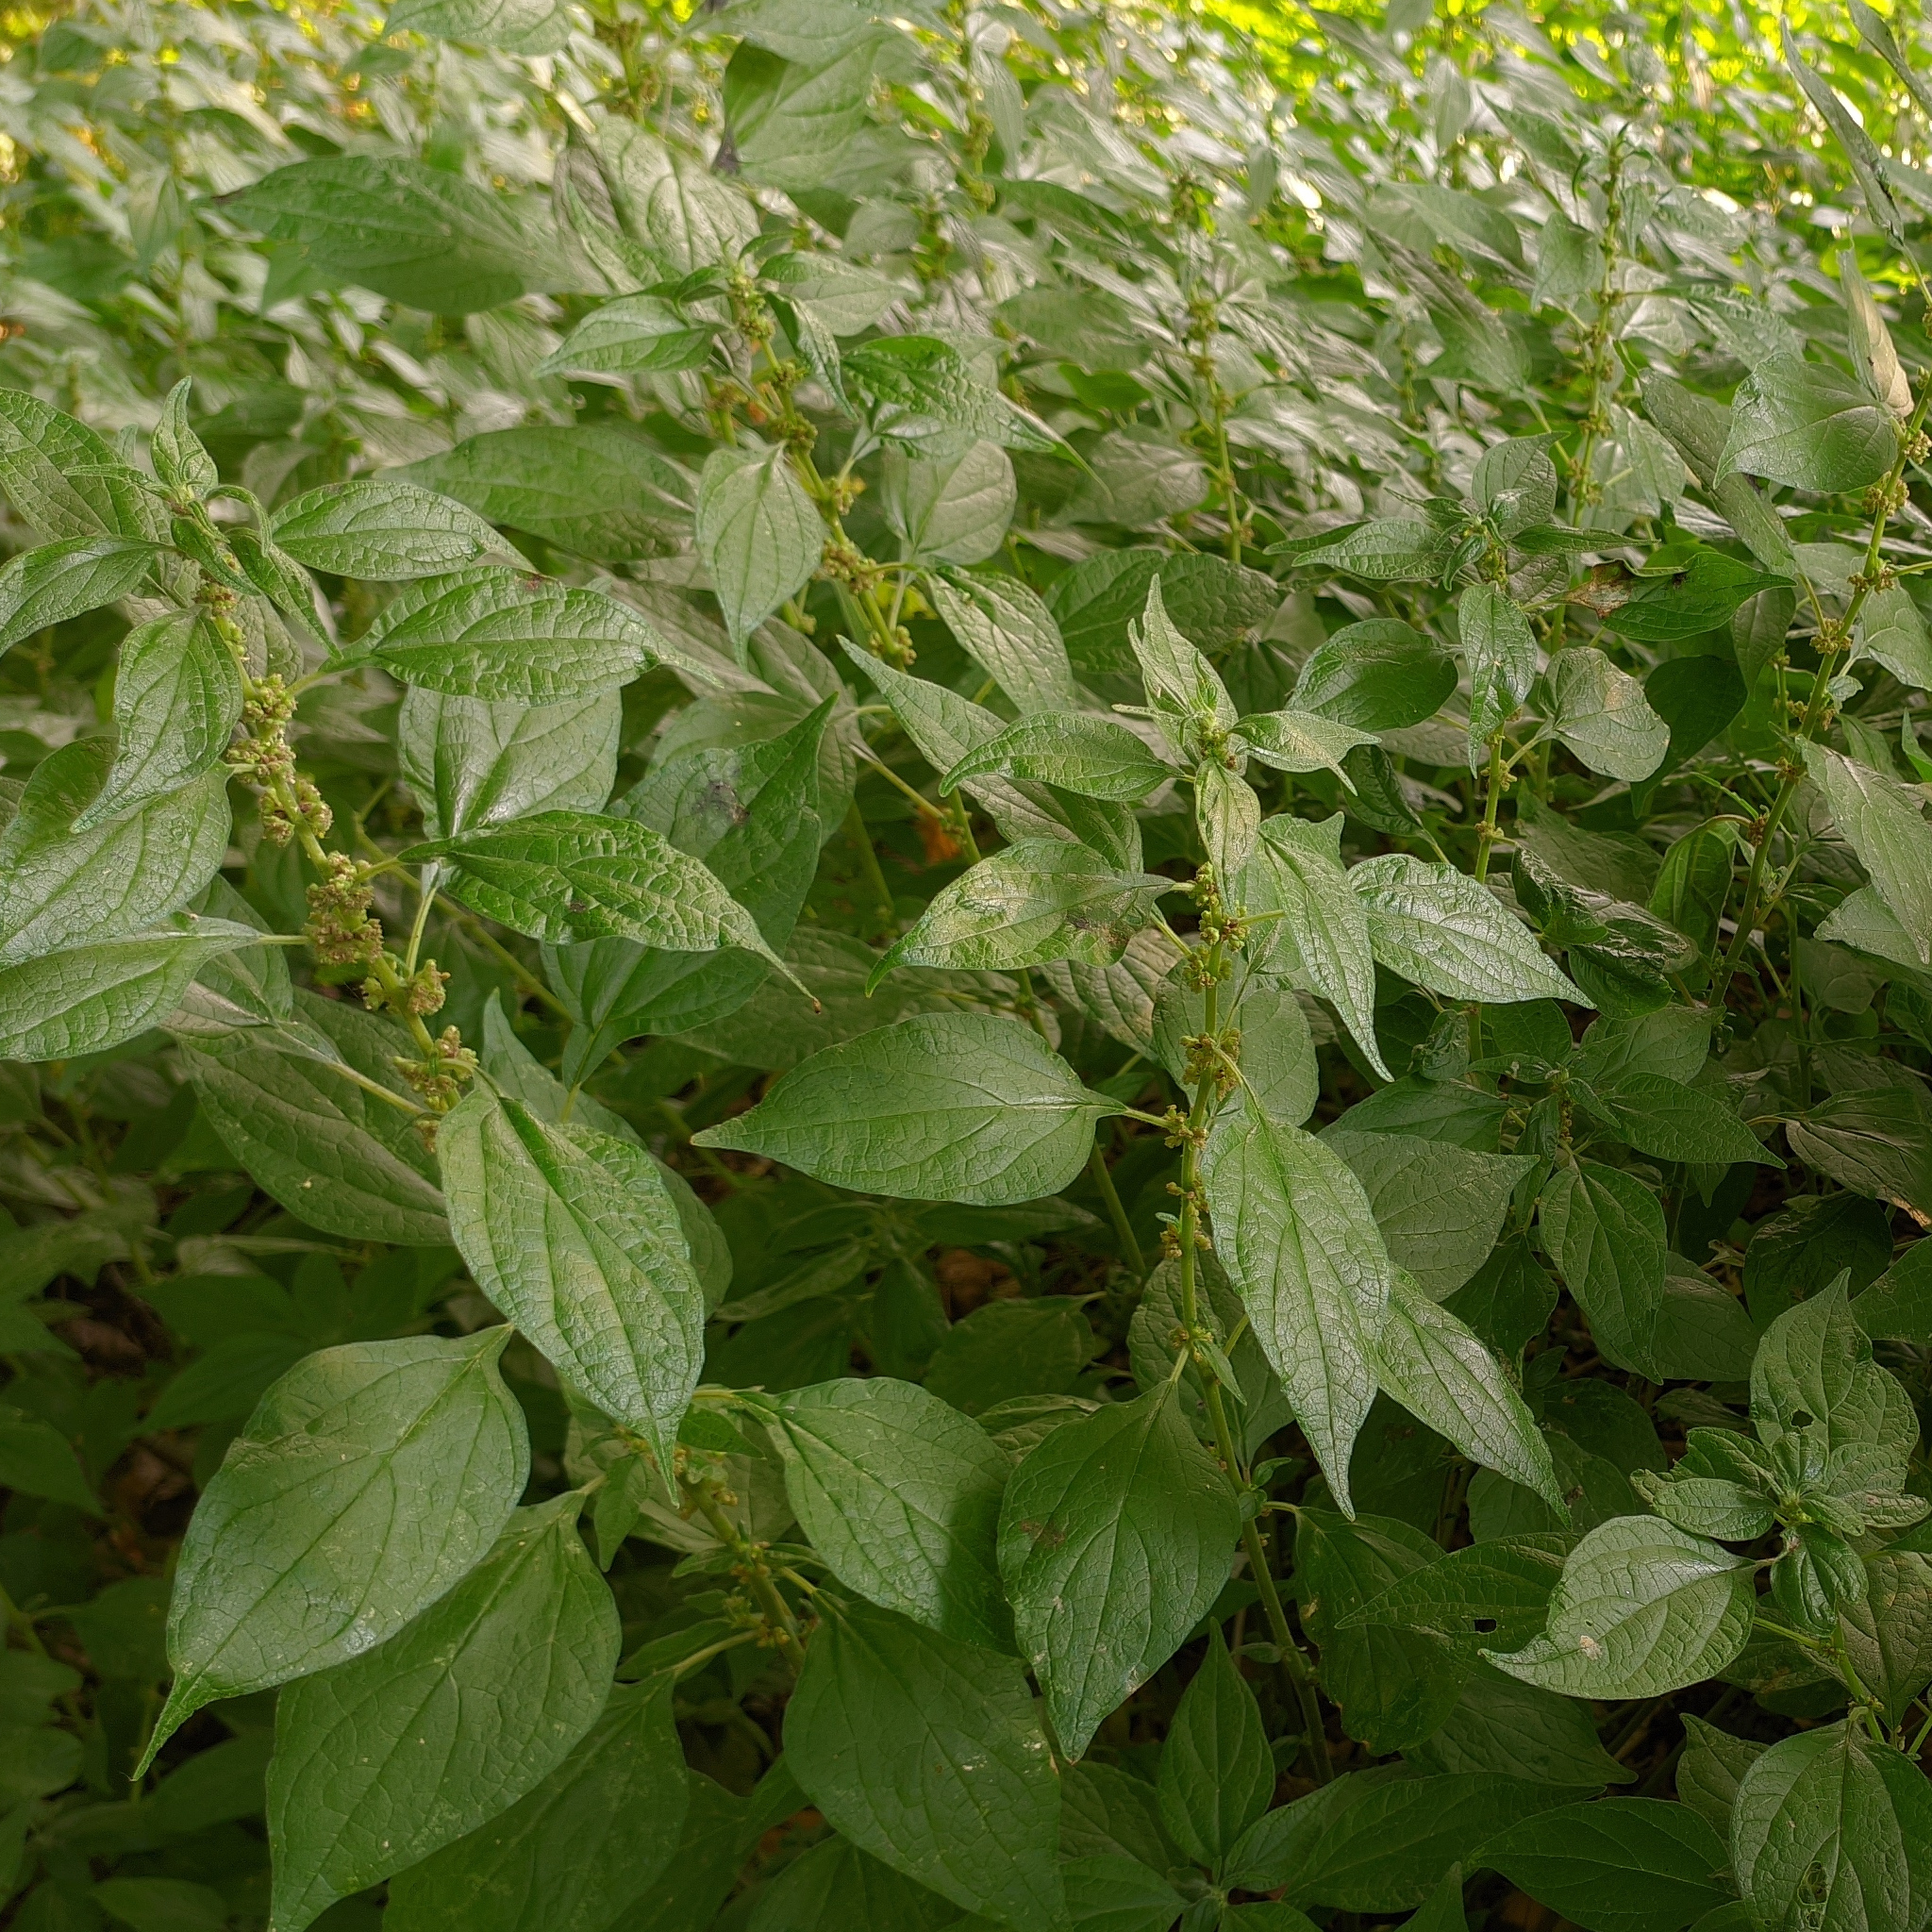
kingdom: Plantae
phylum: Tracheophyta
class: Magnoliopsida
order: Rosales
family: Urticaceae
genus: Parietaria
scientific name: Parietaria officinalis
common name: Eastern pellitory-of-the-wall
